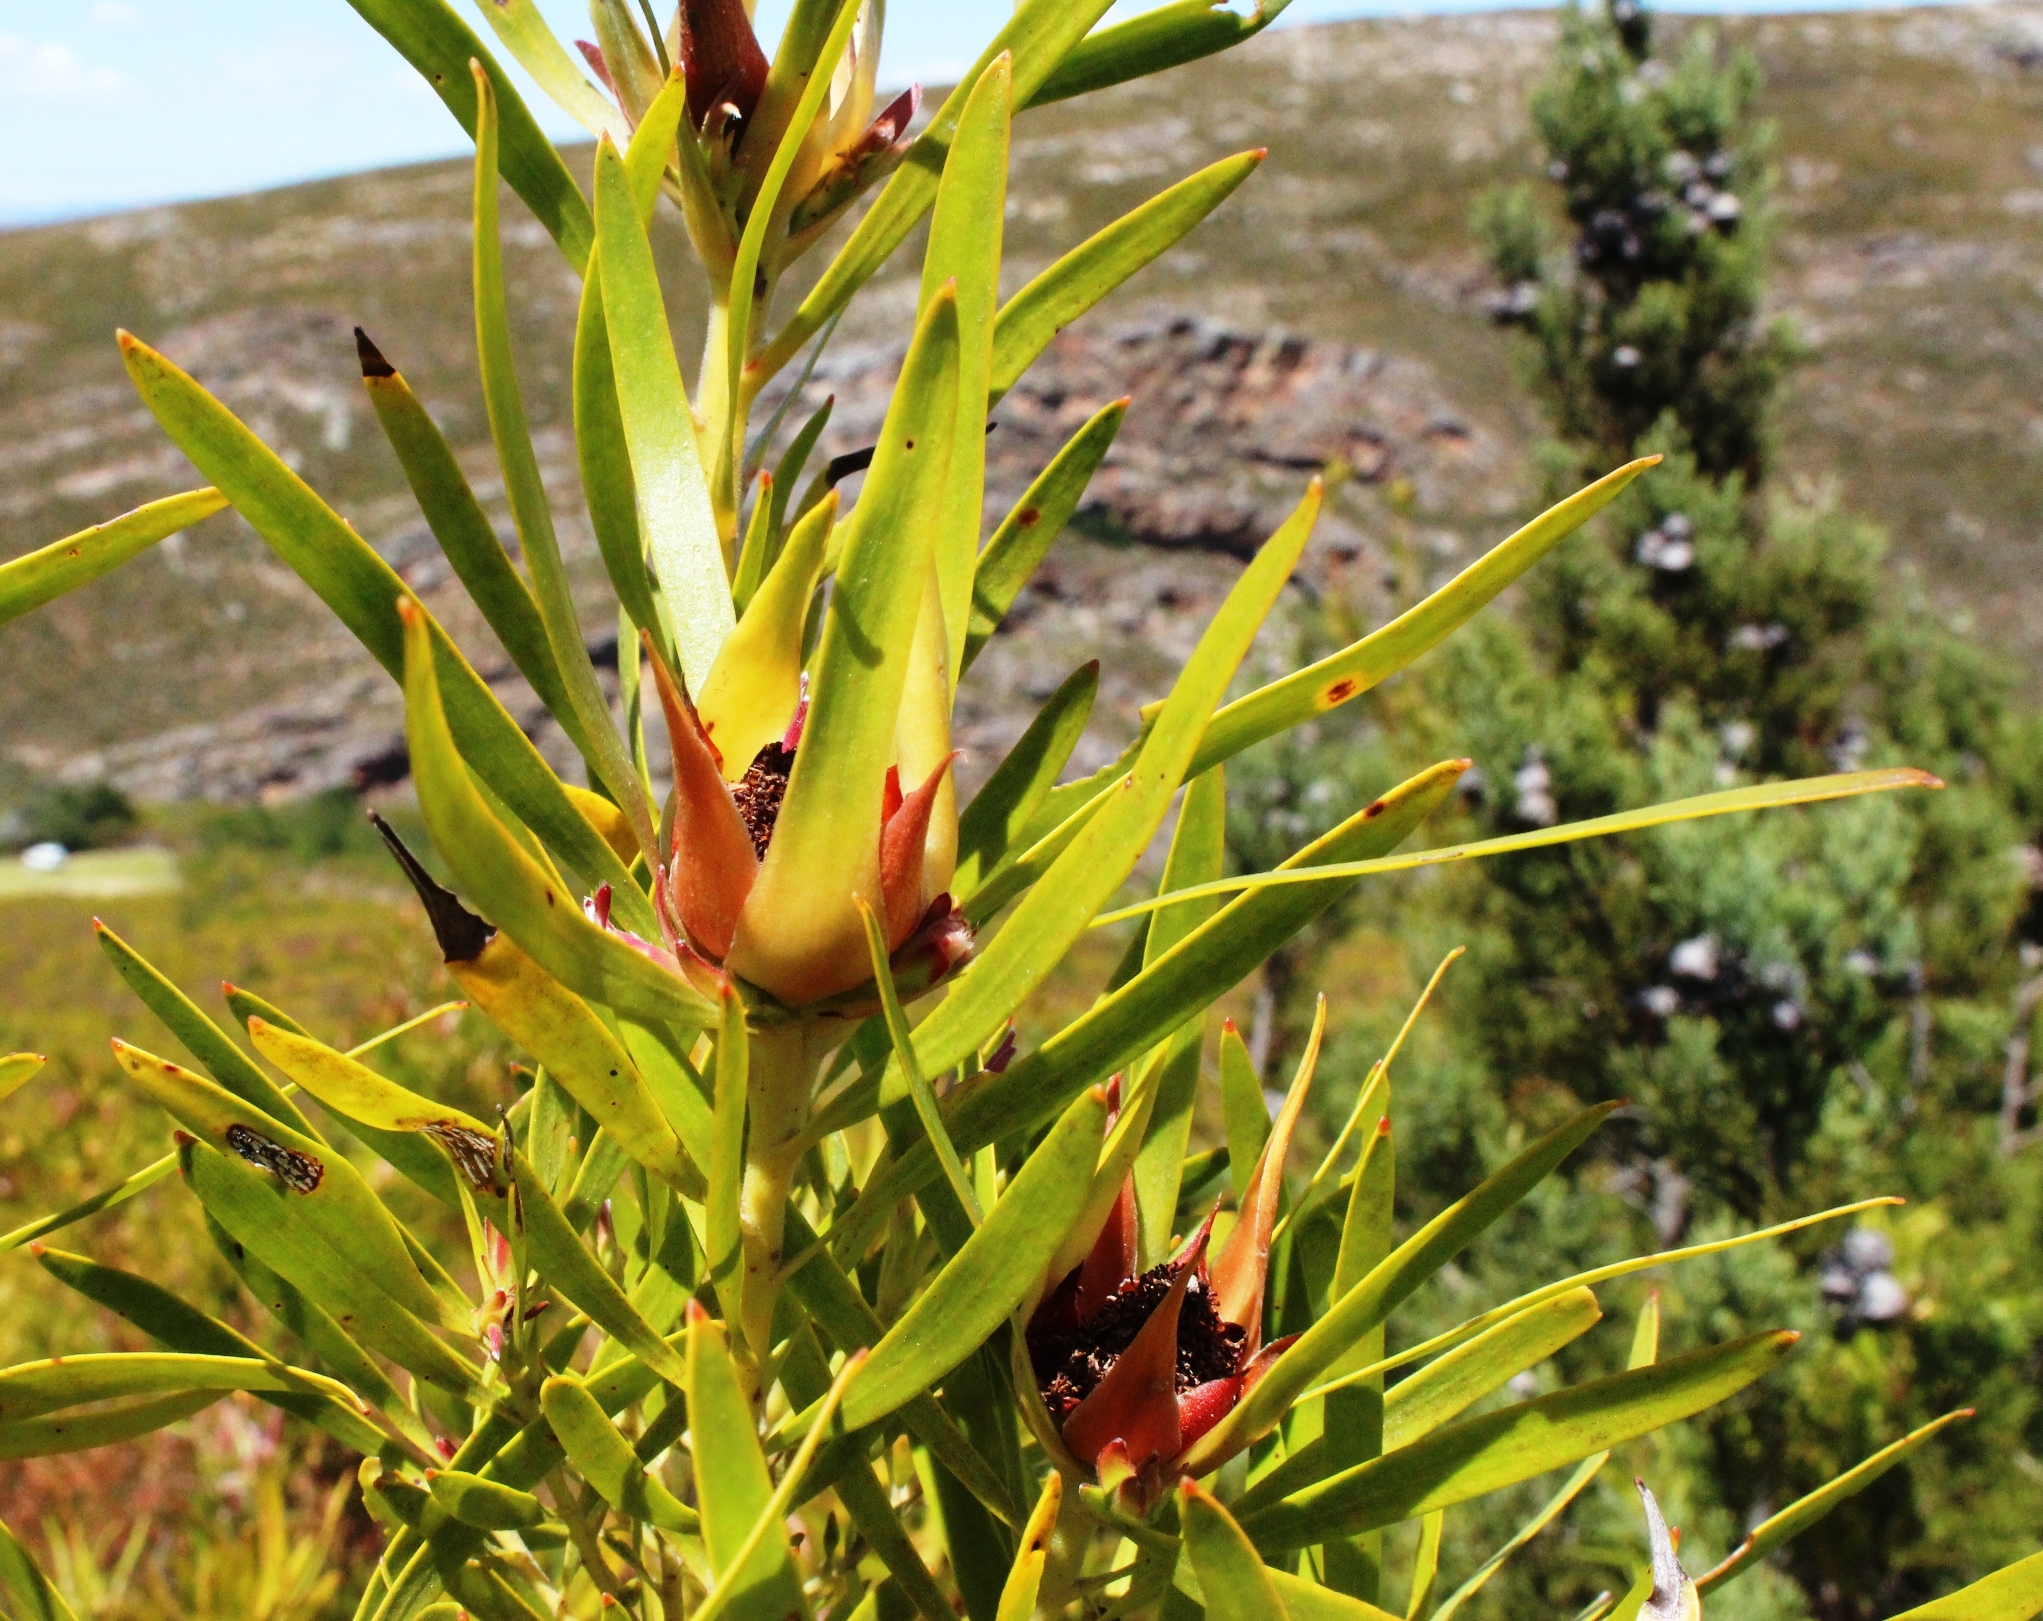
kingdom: Plantae
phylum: Tracheophyta
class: Magnoliopsida
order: Proteales
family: Proteaceae
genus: Leucadendron
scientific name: Leucadendron eucalyptifolium
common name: Gum-leaved conebush
